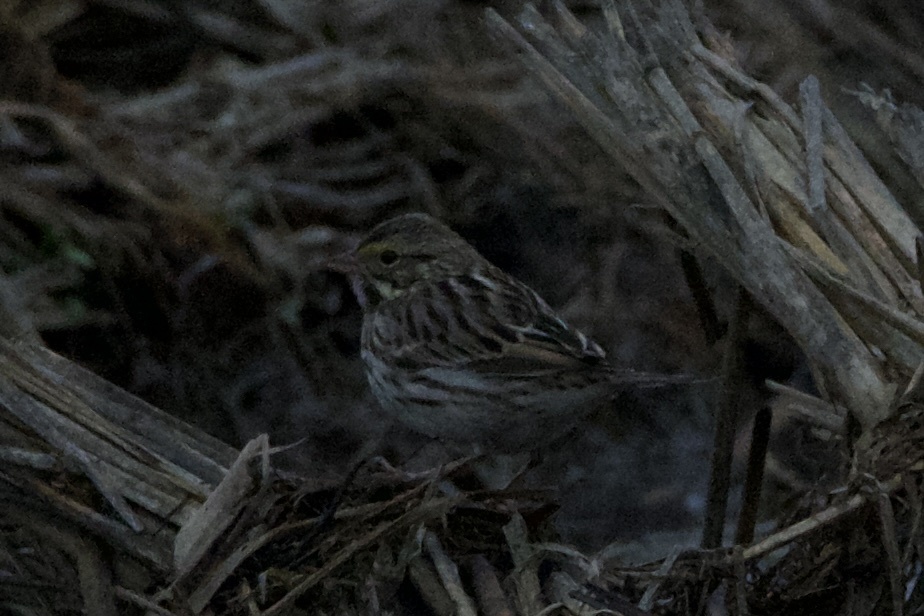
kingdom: Animalia
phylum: Chordata
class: Aves
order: Passeriformes
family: Passerellidae
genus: Passerculus
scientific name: Passerculus sandwichensis
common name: Savannah sparrow
